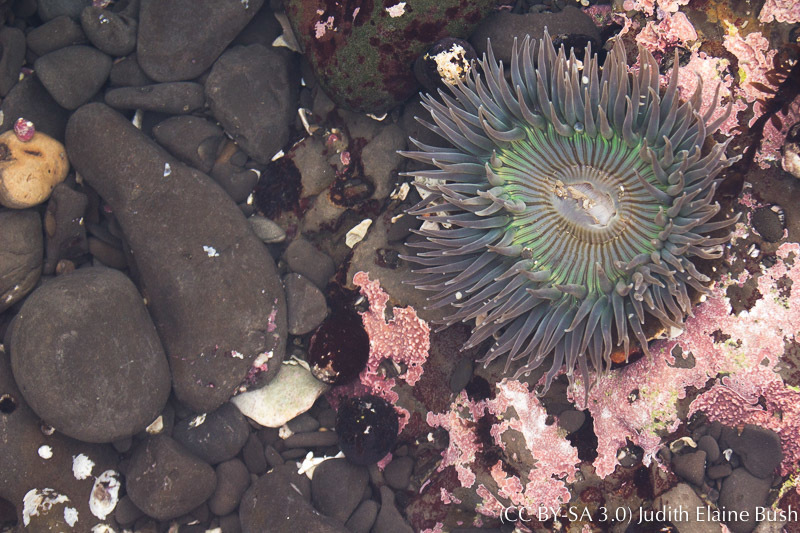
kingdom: Animalia
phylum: Cnidaria
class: Anthozoa
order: Actiniaria
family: Actiniidae
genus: Anthopleura
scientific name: Anthopleura sola
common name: Sun anemone
